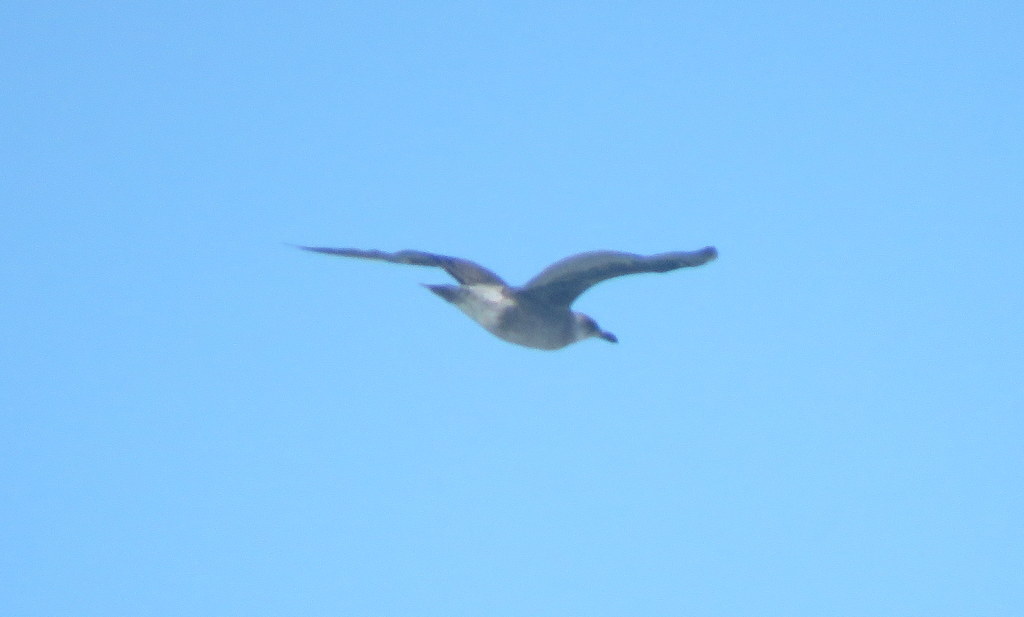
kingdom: Animalia
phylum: Chordata
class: Aves
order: Charadriiformes
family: Laridae
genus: Larus
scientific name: Larus dominicanus
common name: Kelp gull
